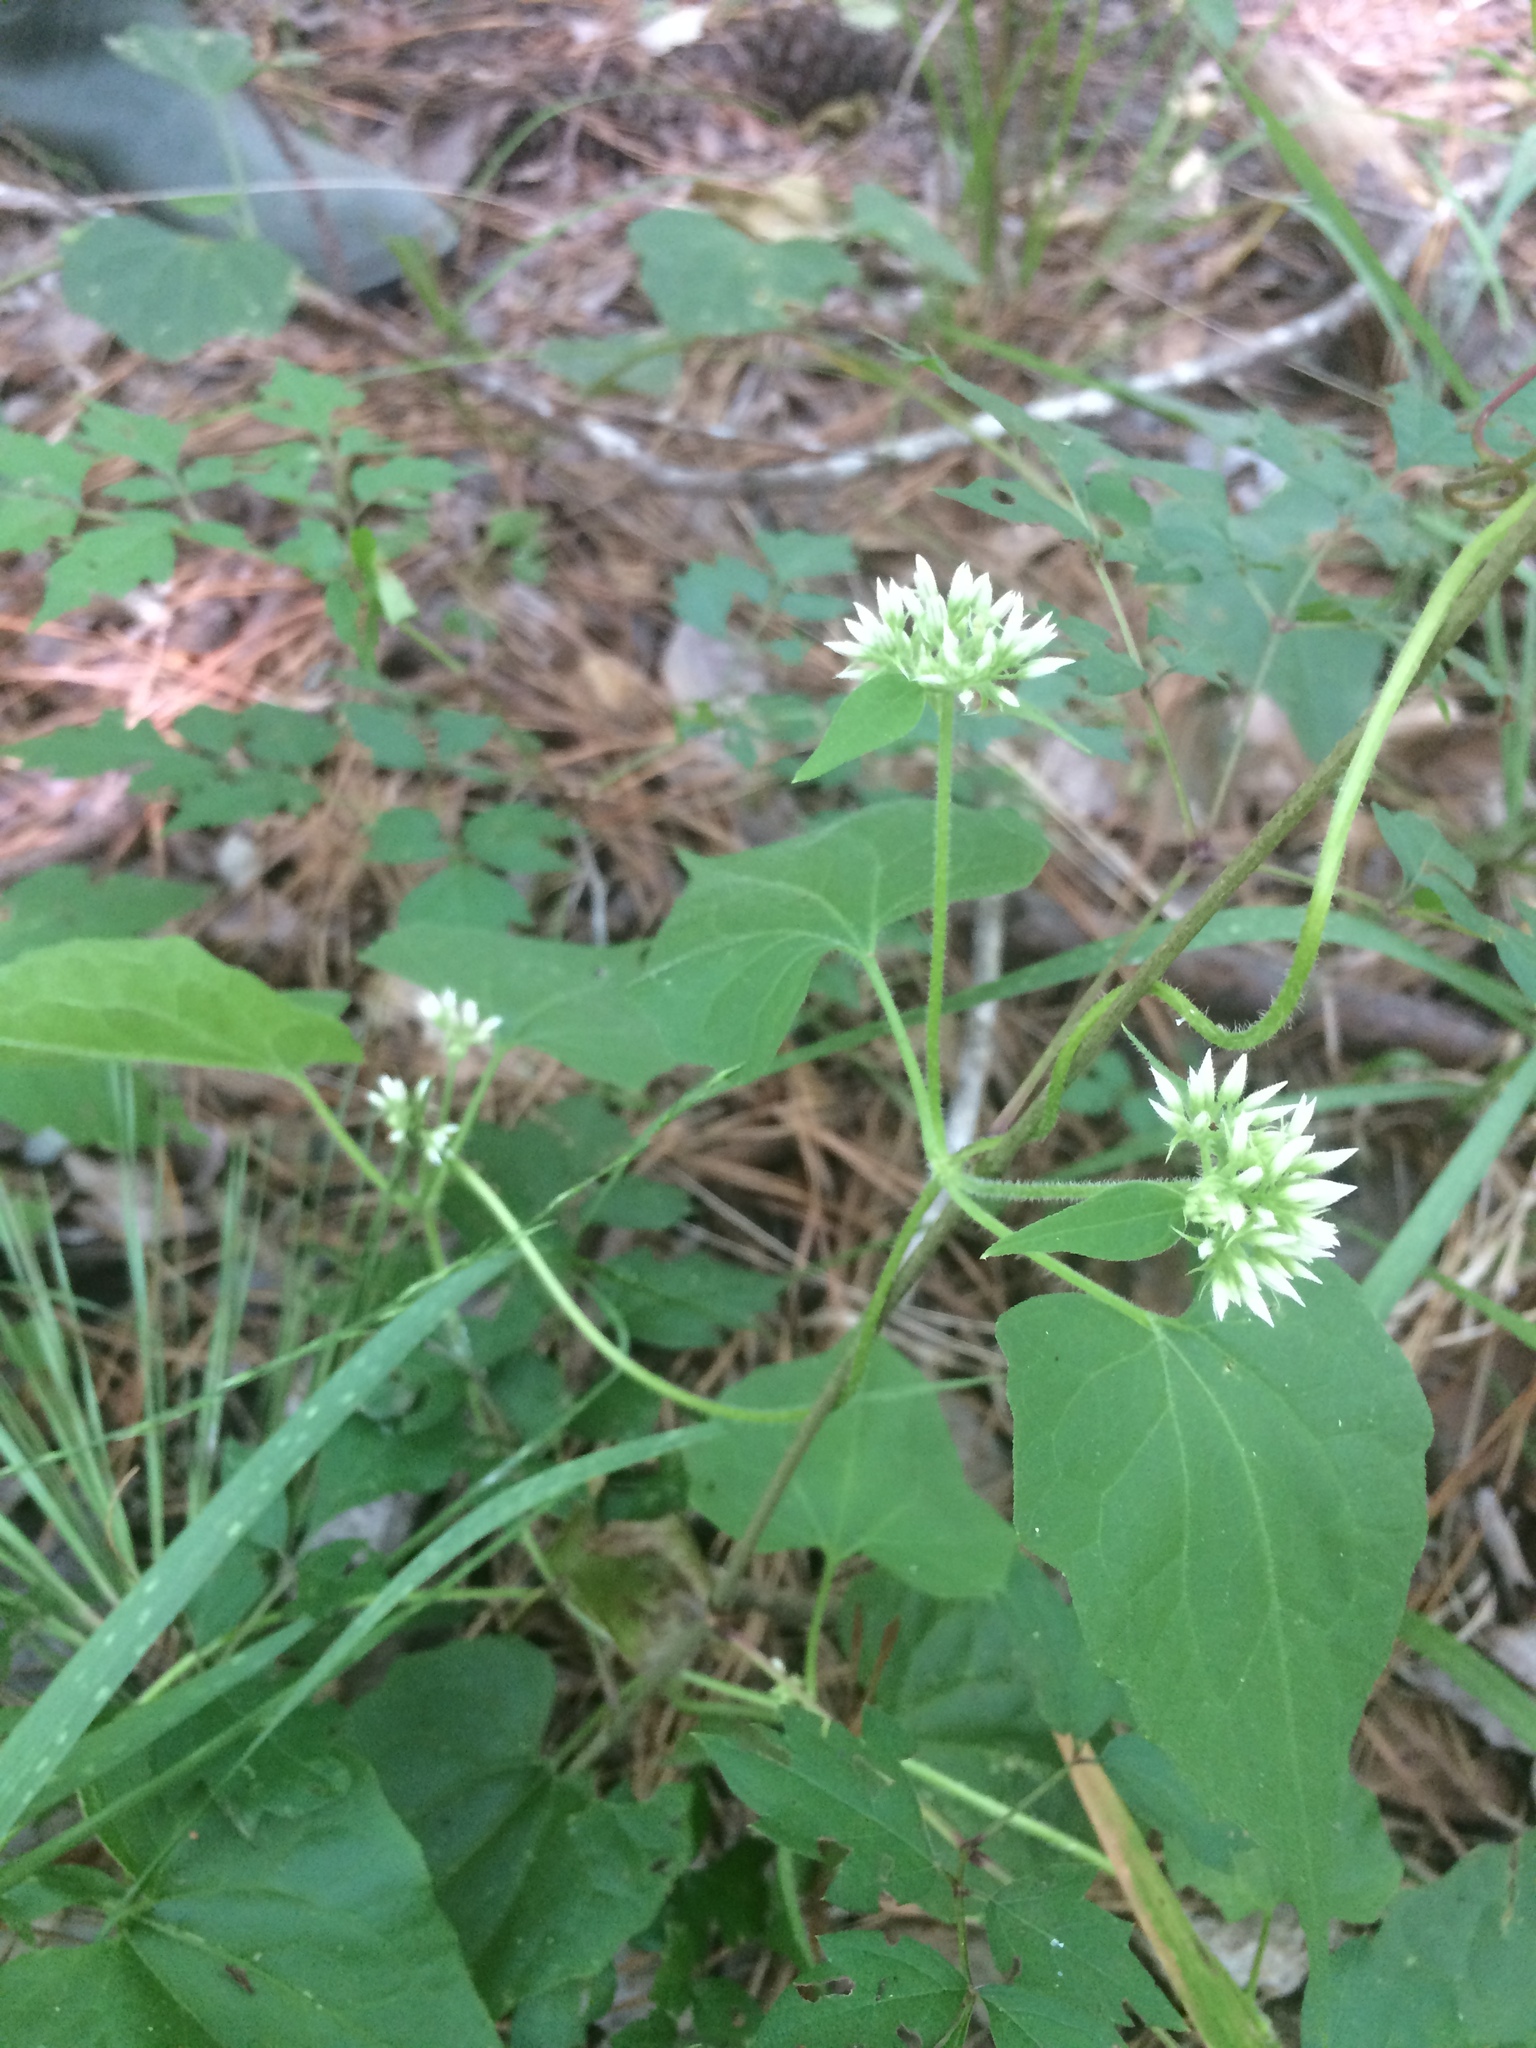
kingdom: Plantae
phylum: Tracheophyta
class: Magnoliopsida
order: Asterales
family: Asteraceae
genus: Mikania
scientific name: Mikania scandens
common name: Climbing hempvine
